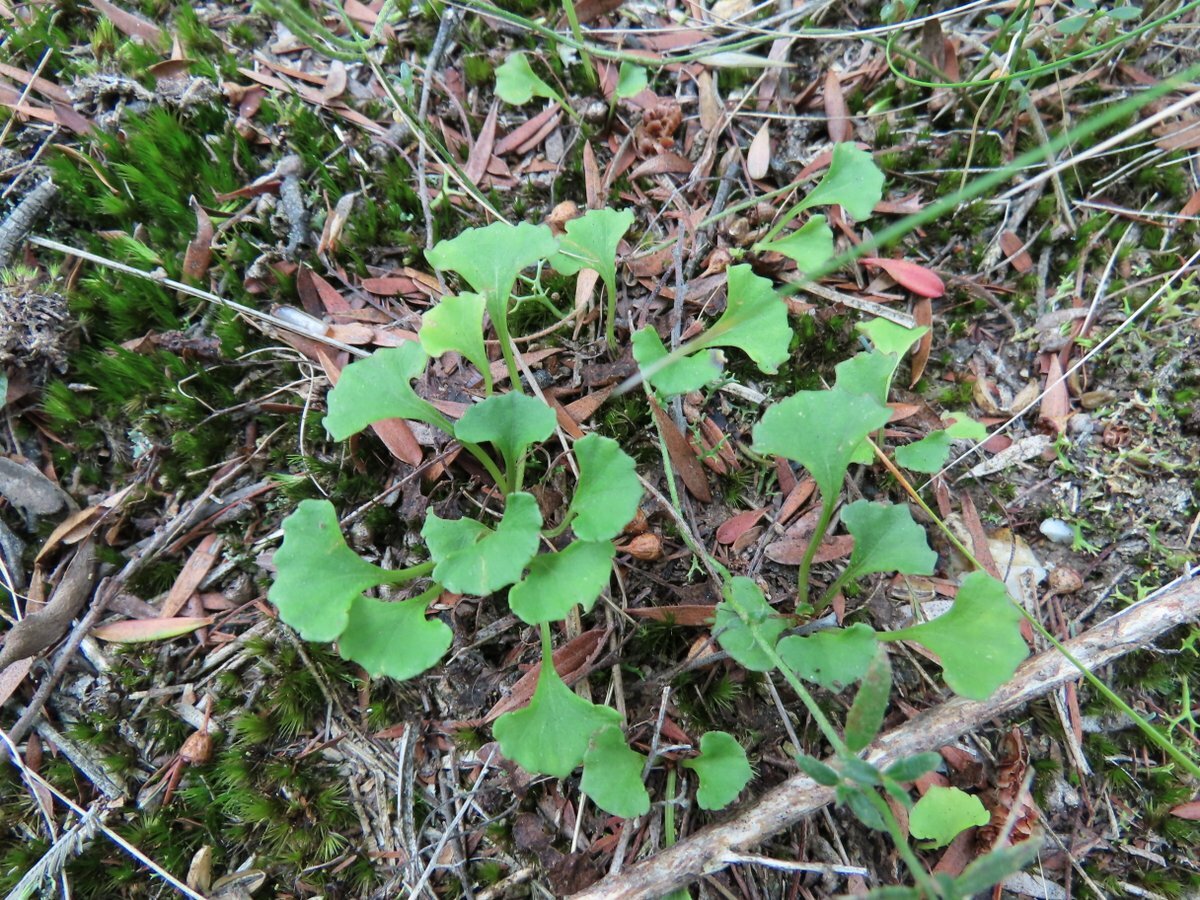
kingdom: Plantae
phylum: Tracheophyta
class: Magnoliopsida
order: Malpighiales
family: Violaceae
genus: Viola
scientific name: Viola hederacea
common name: Australian violet
